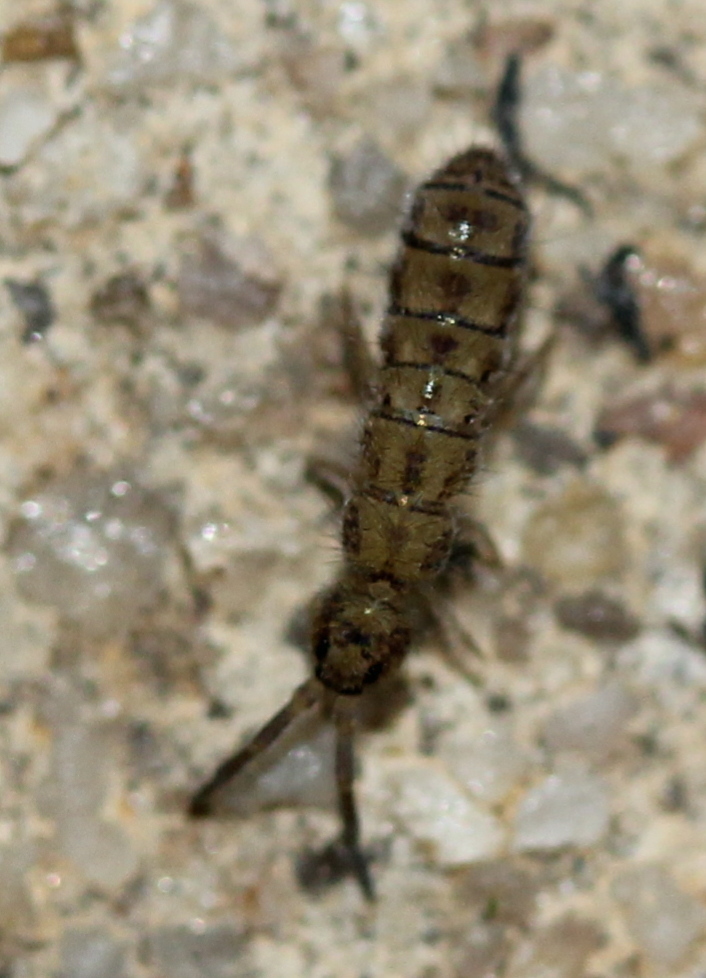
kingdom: Animalia
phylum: Arthropoda
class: Collembola
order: Entomobryomorpha
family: Isotomidae
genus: Isotoma
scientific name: Isotoma delta
